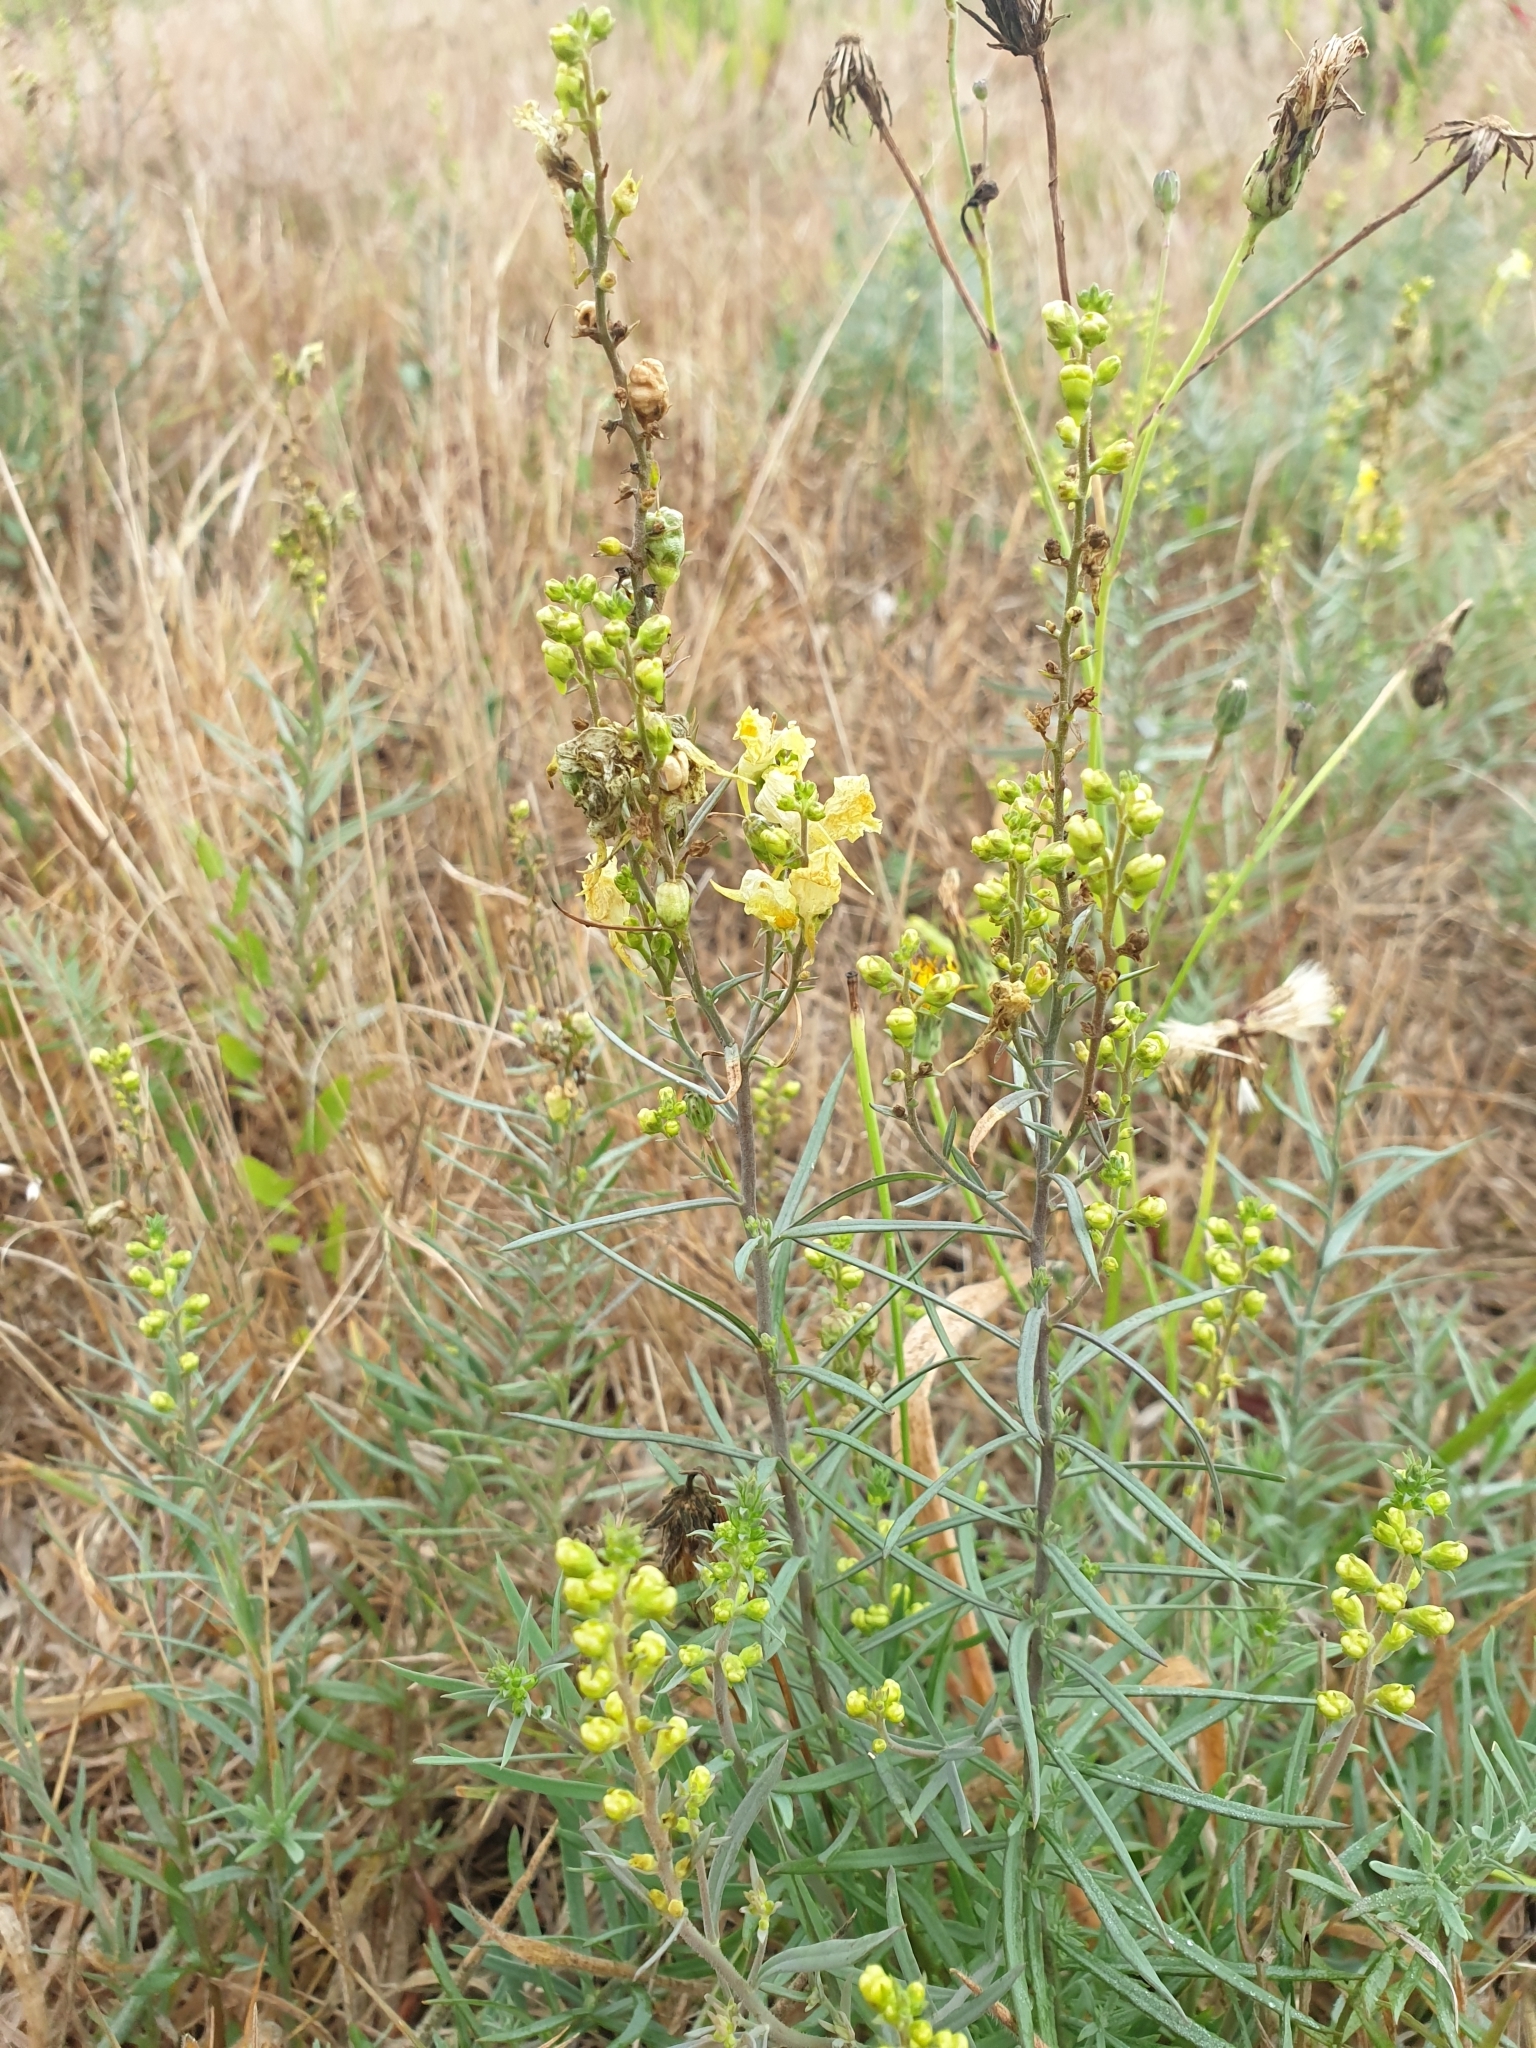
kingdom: Plantae
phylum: Tracheophyta
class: Magnoliopsida
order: Lamiales
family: Plantaginaceae
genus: Linaria
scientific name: Linaria vulgaris
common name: Butter and eggs
